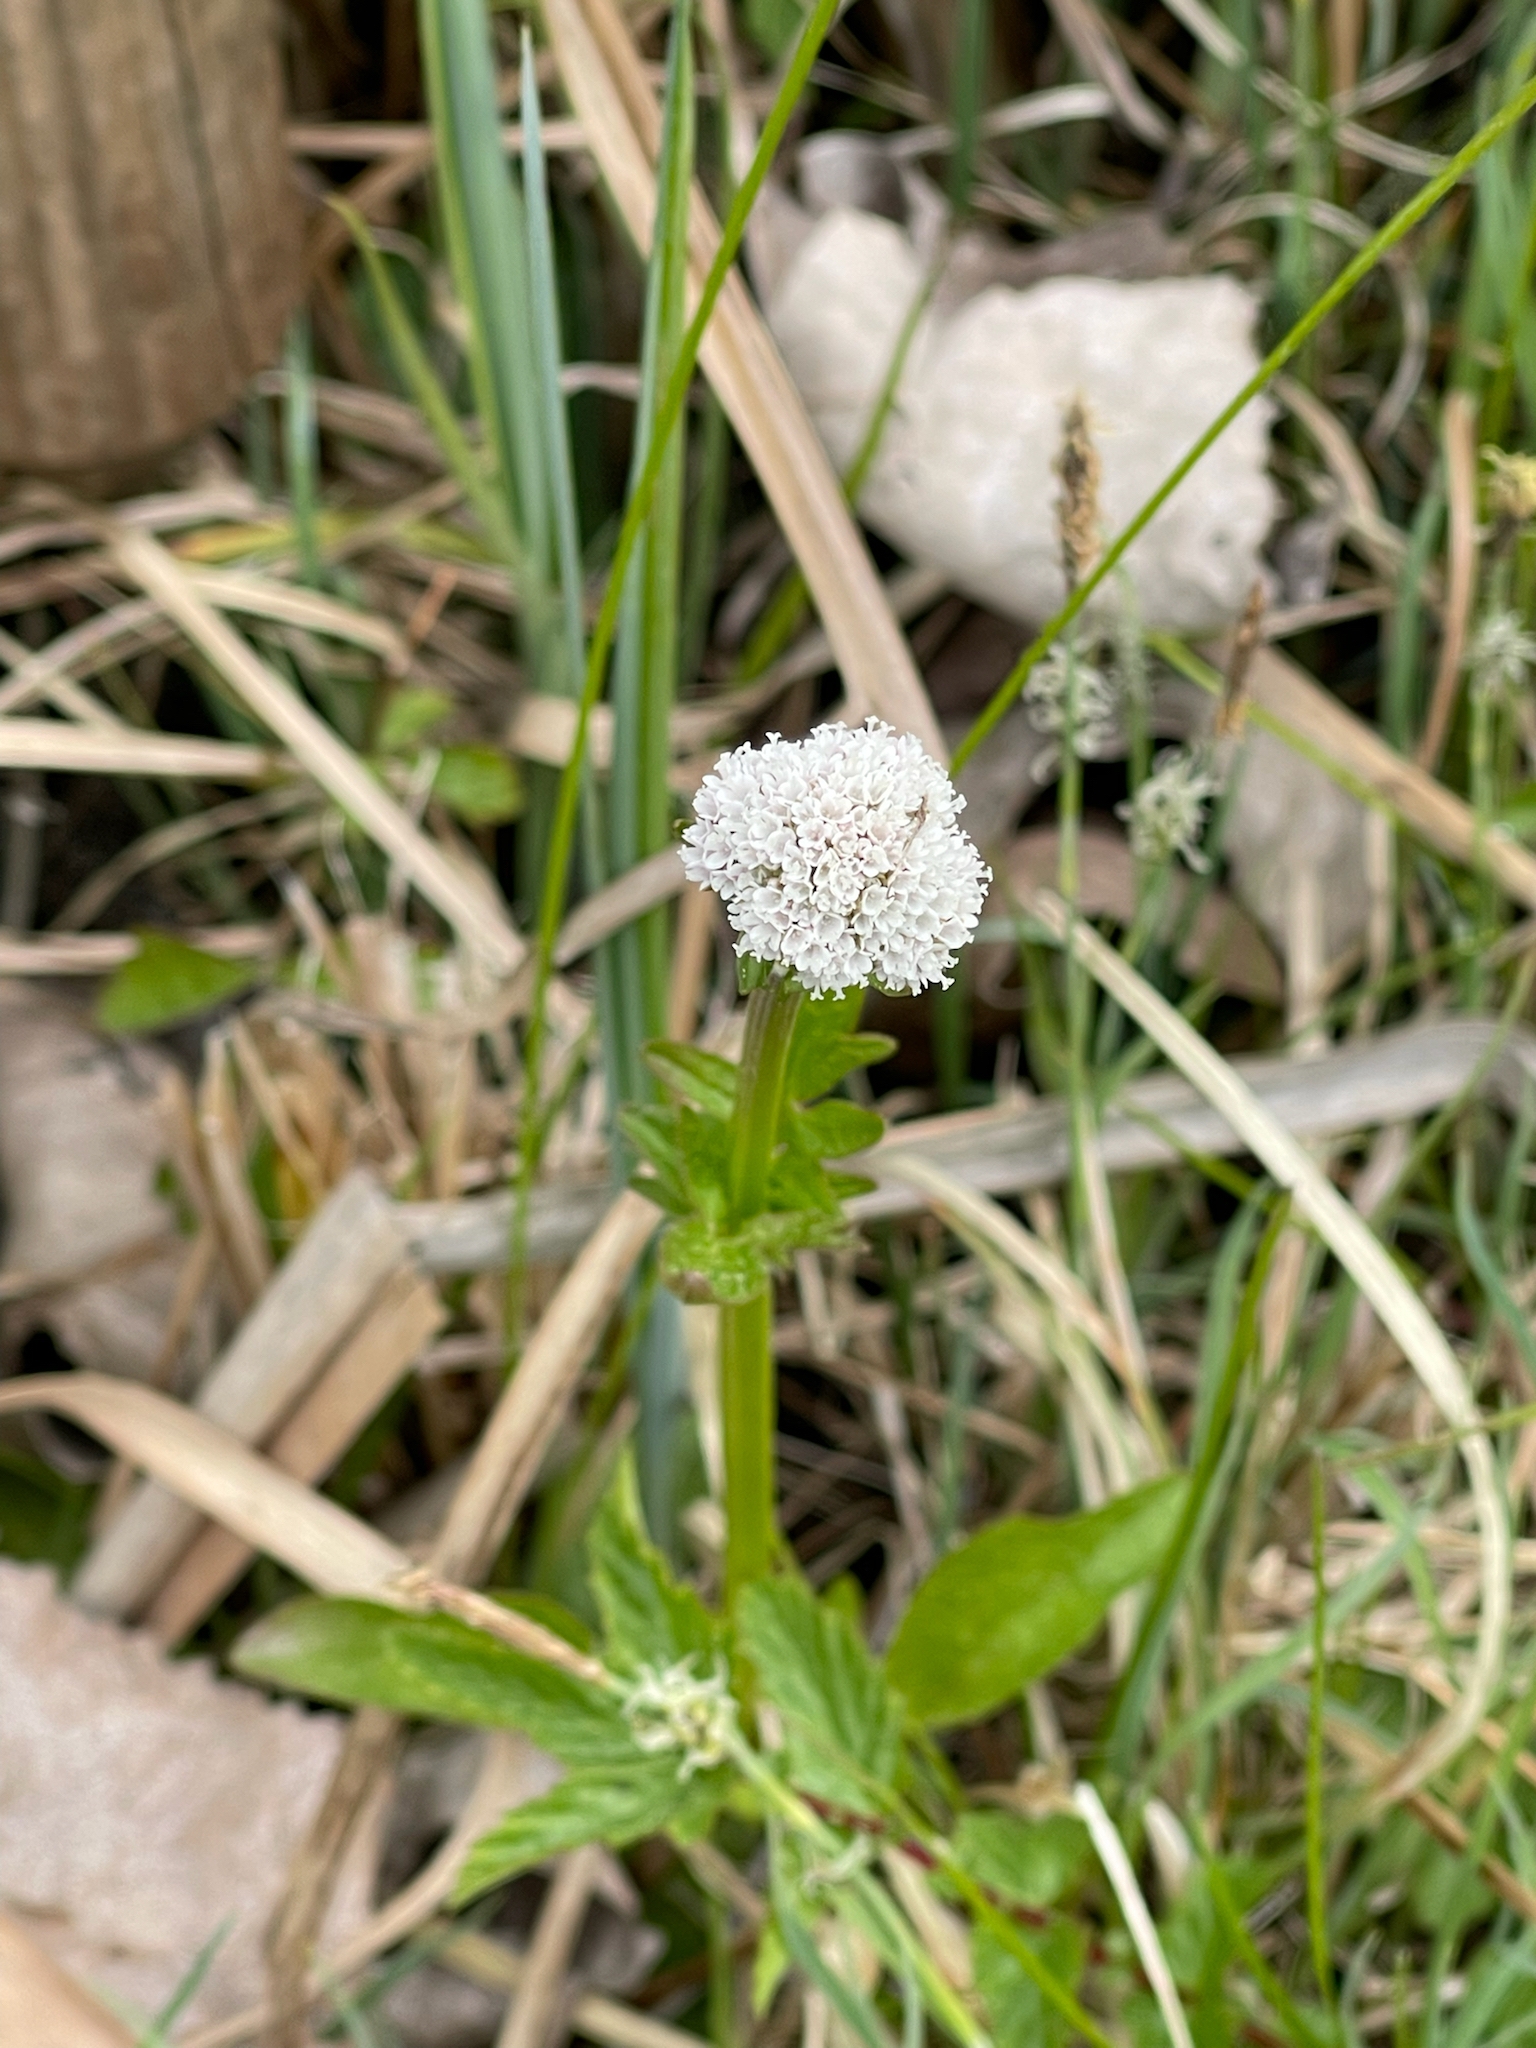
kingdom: Plantae
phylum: Tracheophyta
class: Magnoliopsida
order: Dipsacales
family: Caprifoliaceae
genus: Valeriana
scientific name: Valeriana dioica
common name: Marsh valerian
